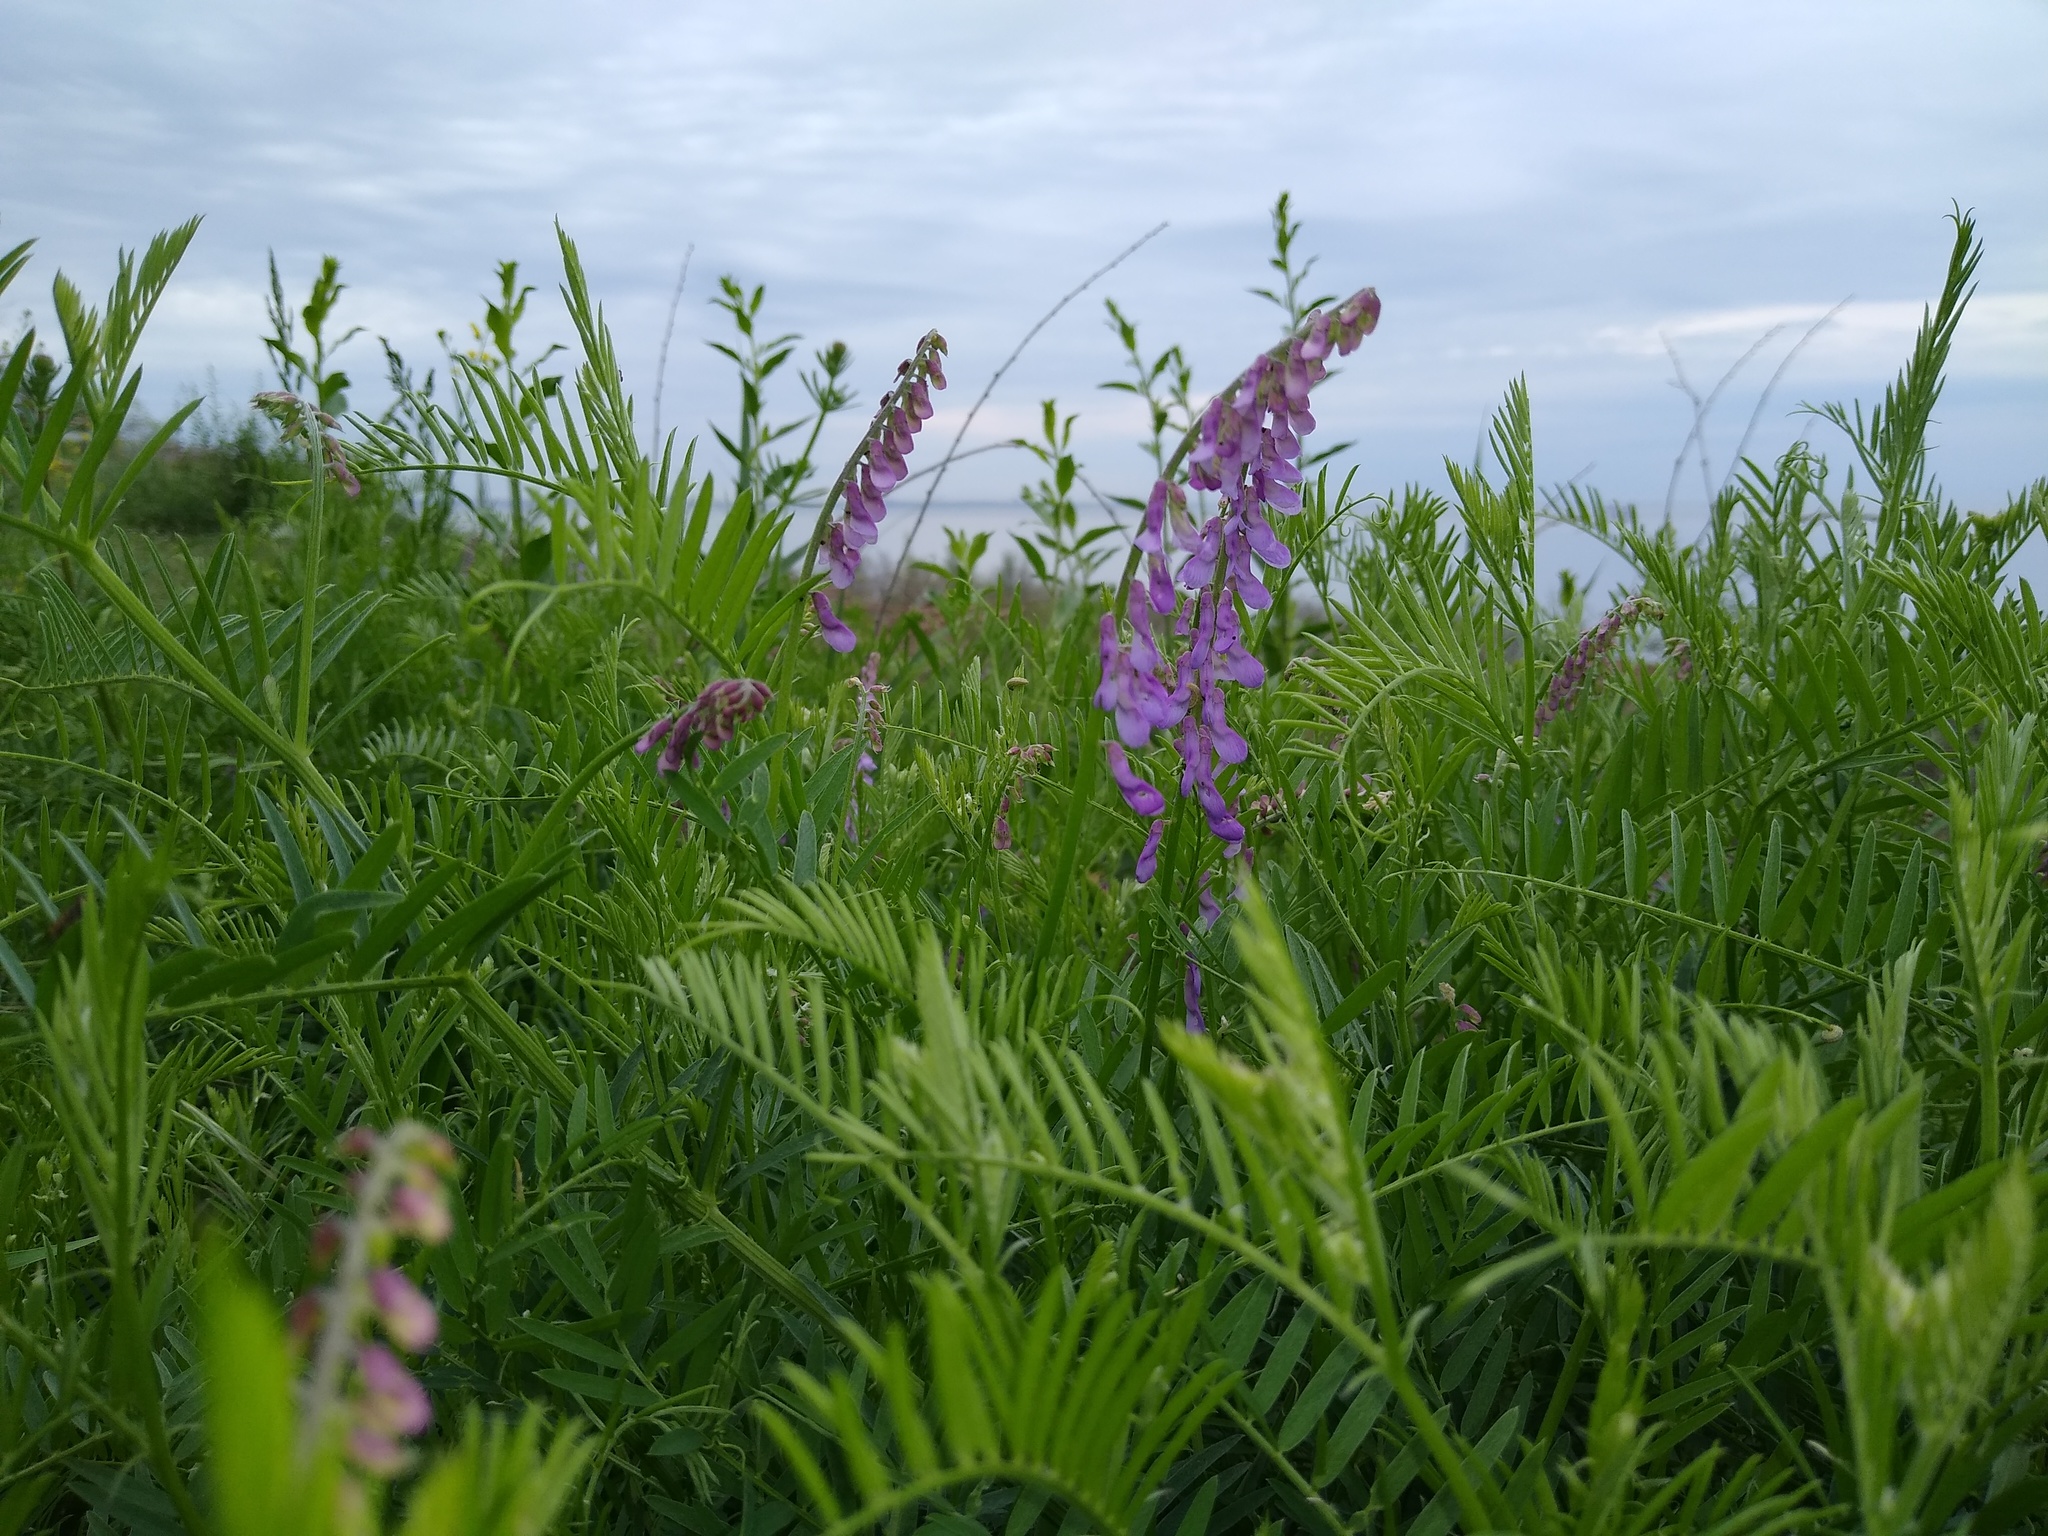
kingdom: Plantae
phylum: Tracheophyta
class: Magnoliopsida
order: Fabales
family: Fabaceae
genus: Vicia
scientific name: Vicia tenuifolia
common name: Fine-leaved vetch
